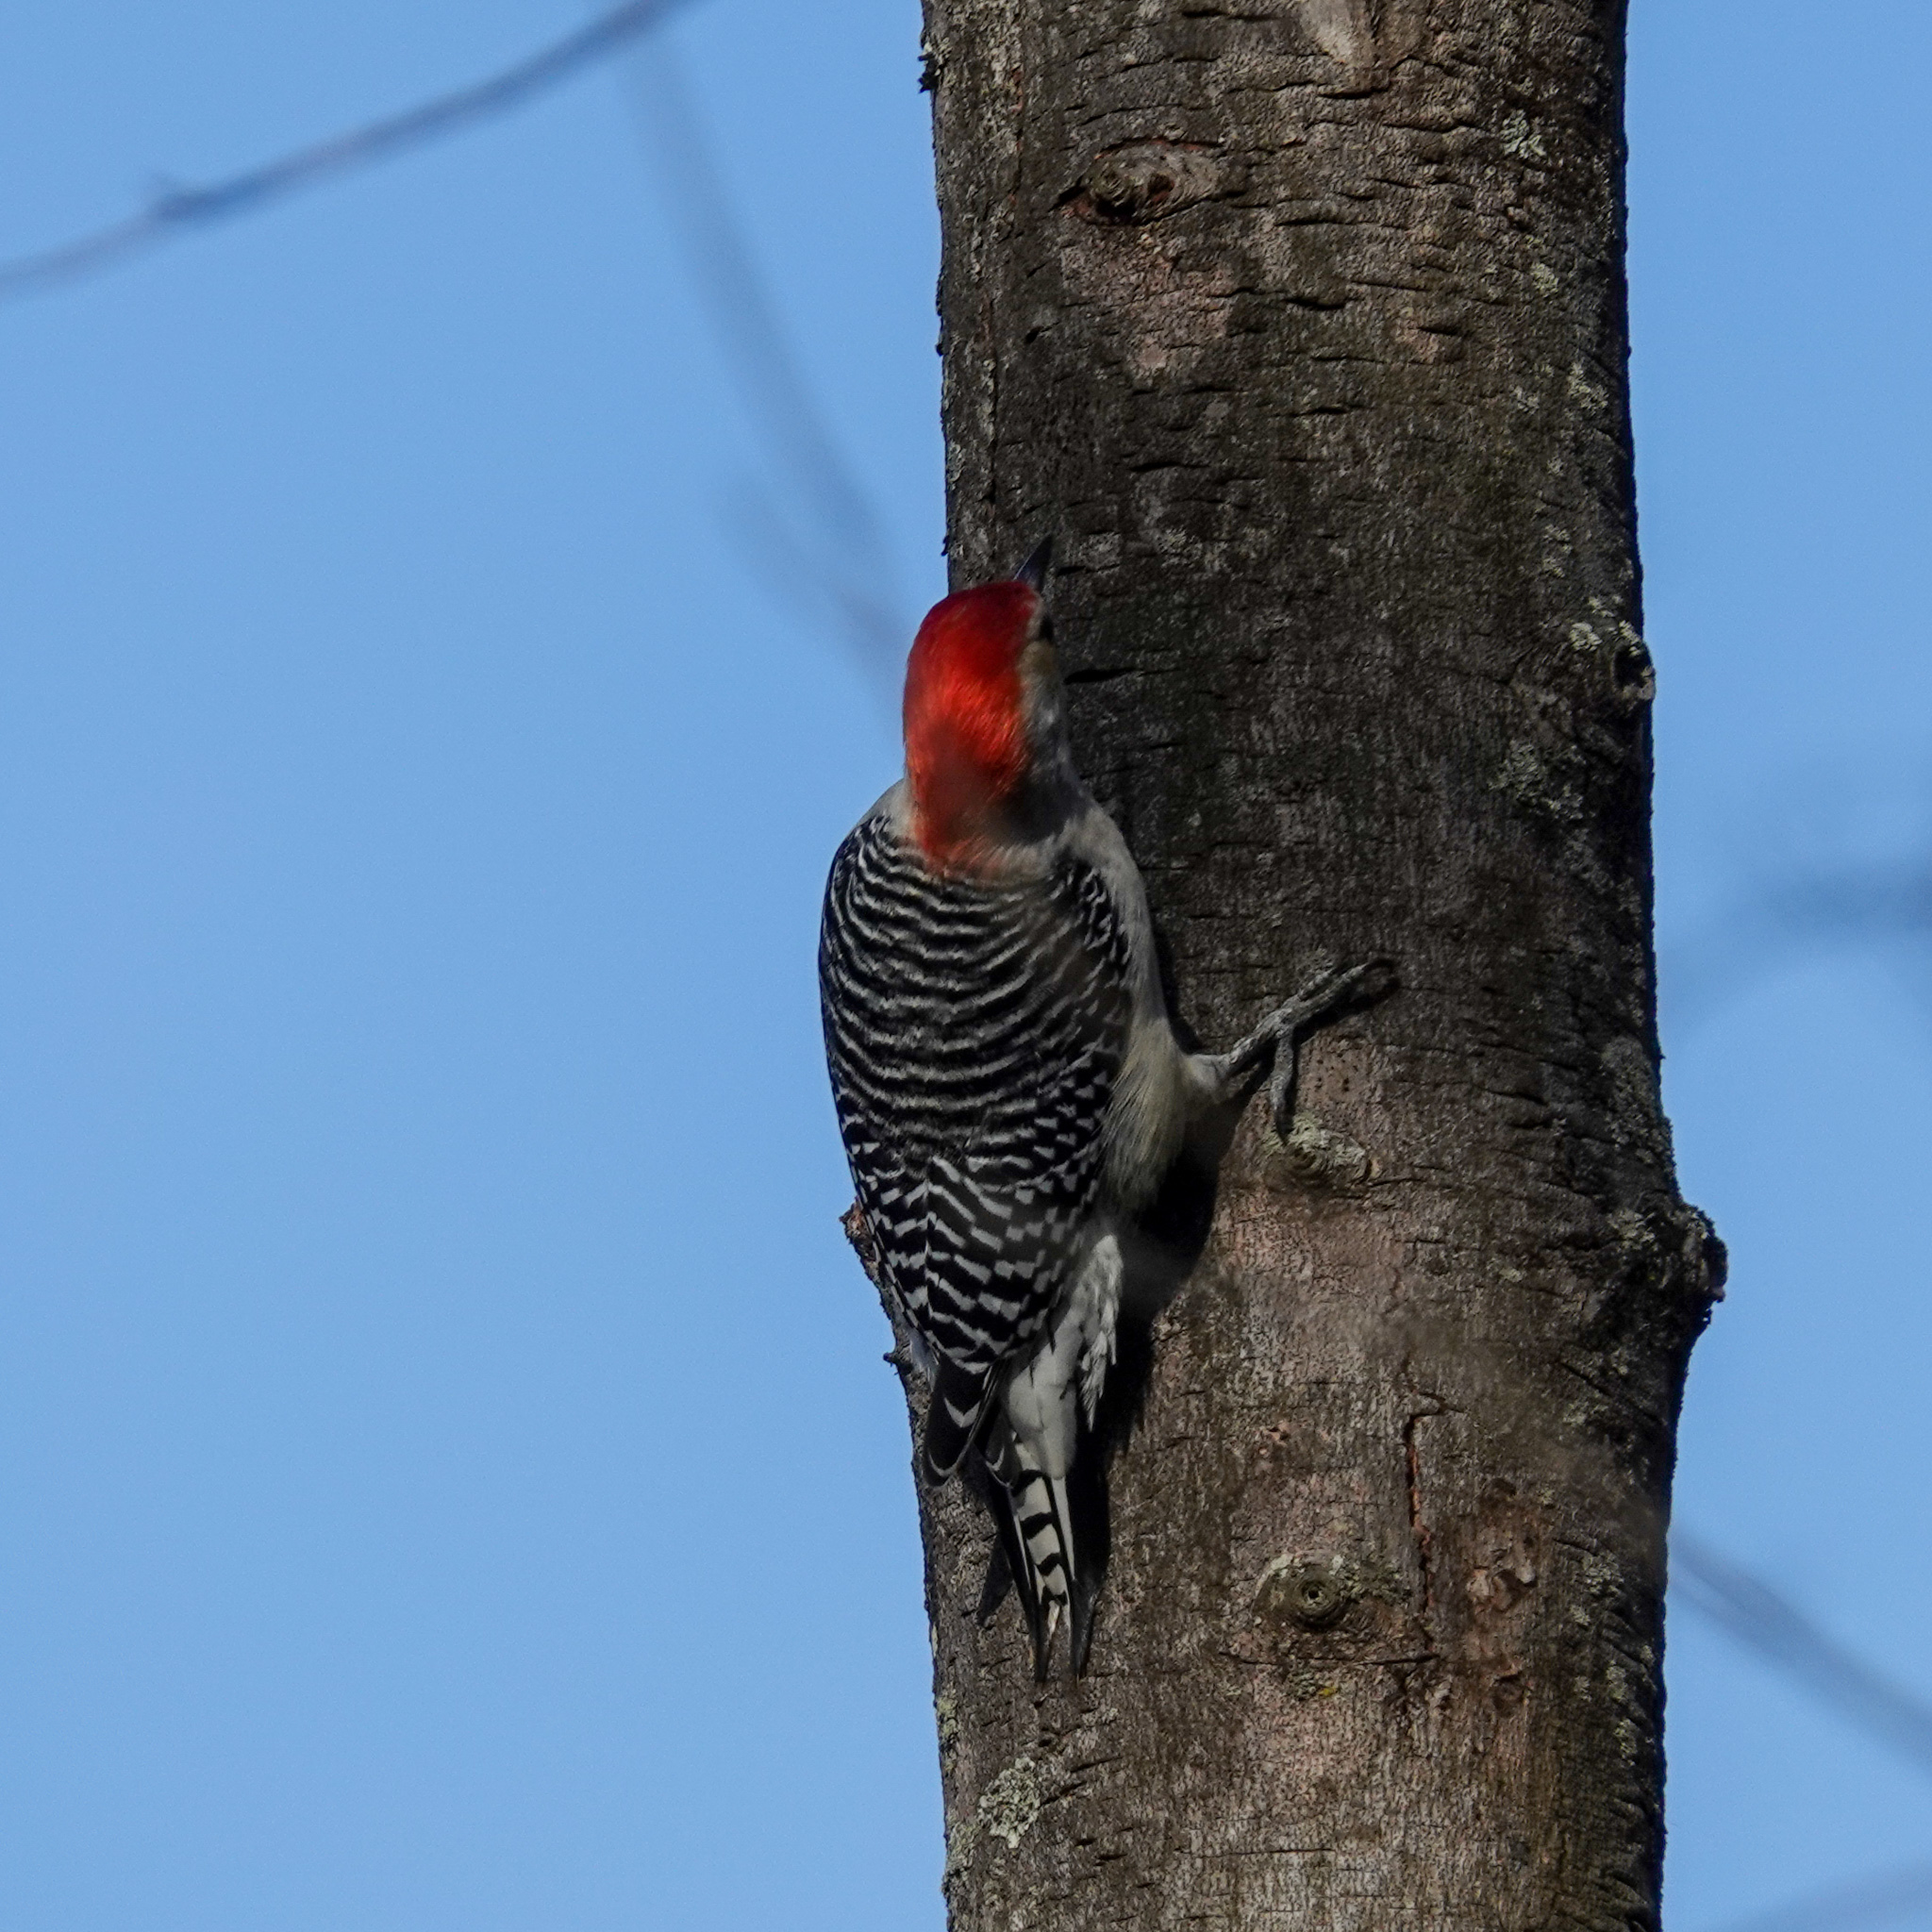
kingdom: Animalia
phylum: Chordata
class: Aves
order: Piciformes
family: Picidae
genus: Melanerpes
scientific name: Melanerpes carolinus
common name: Red-bellied woodpecker
